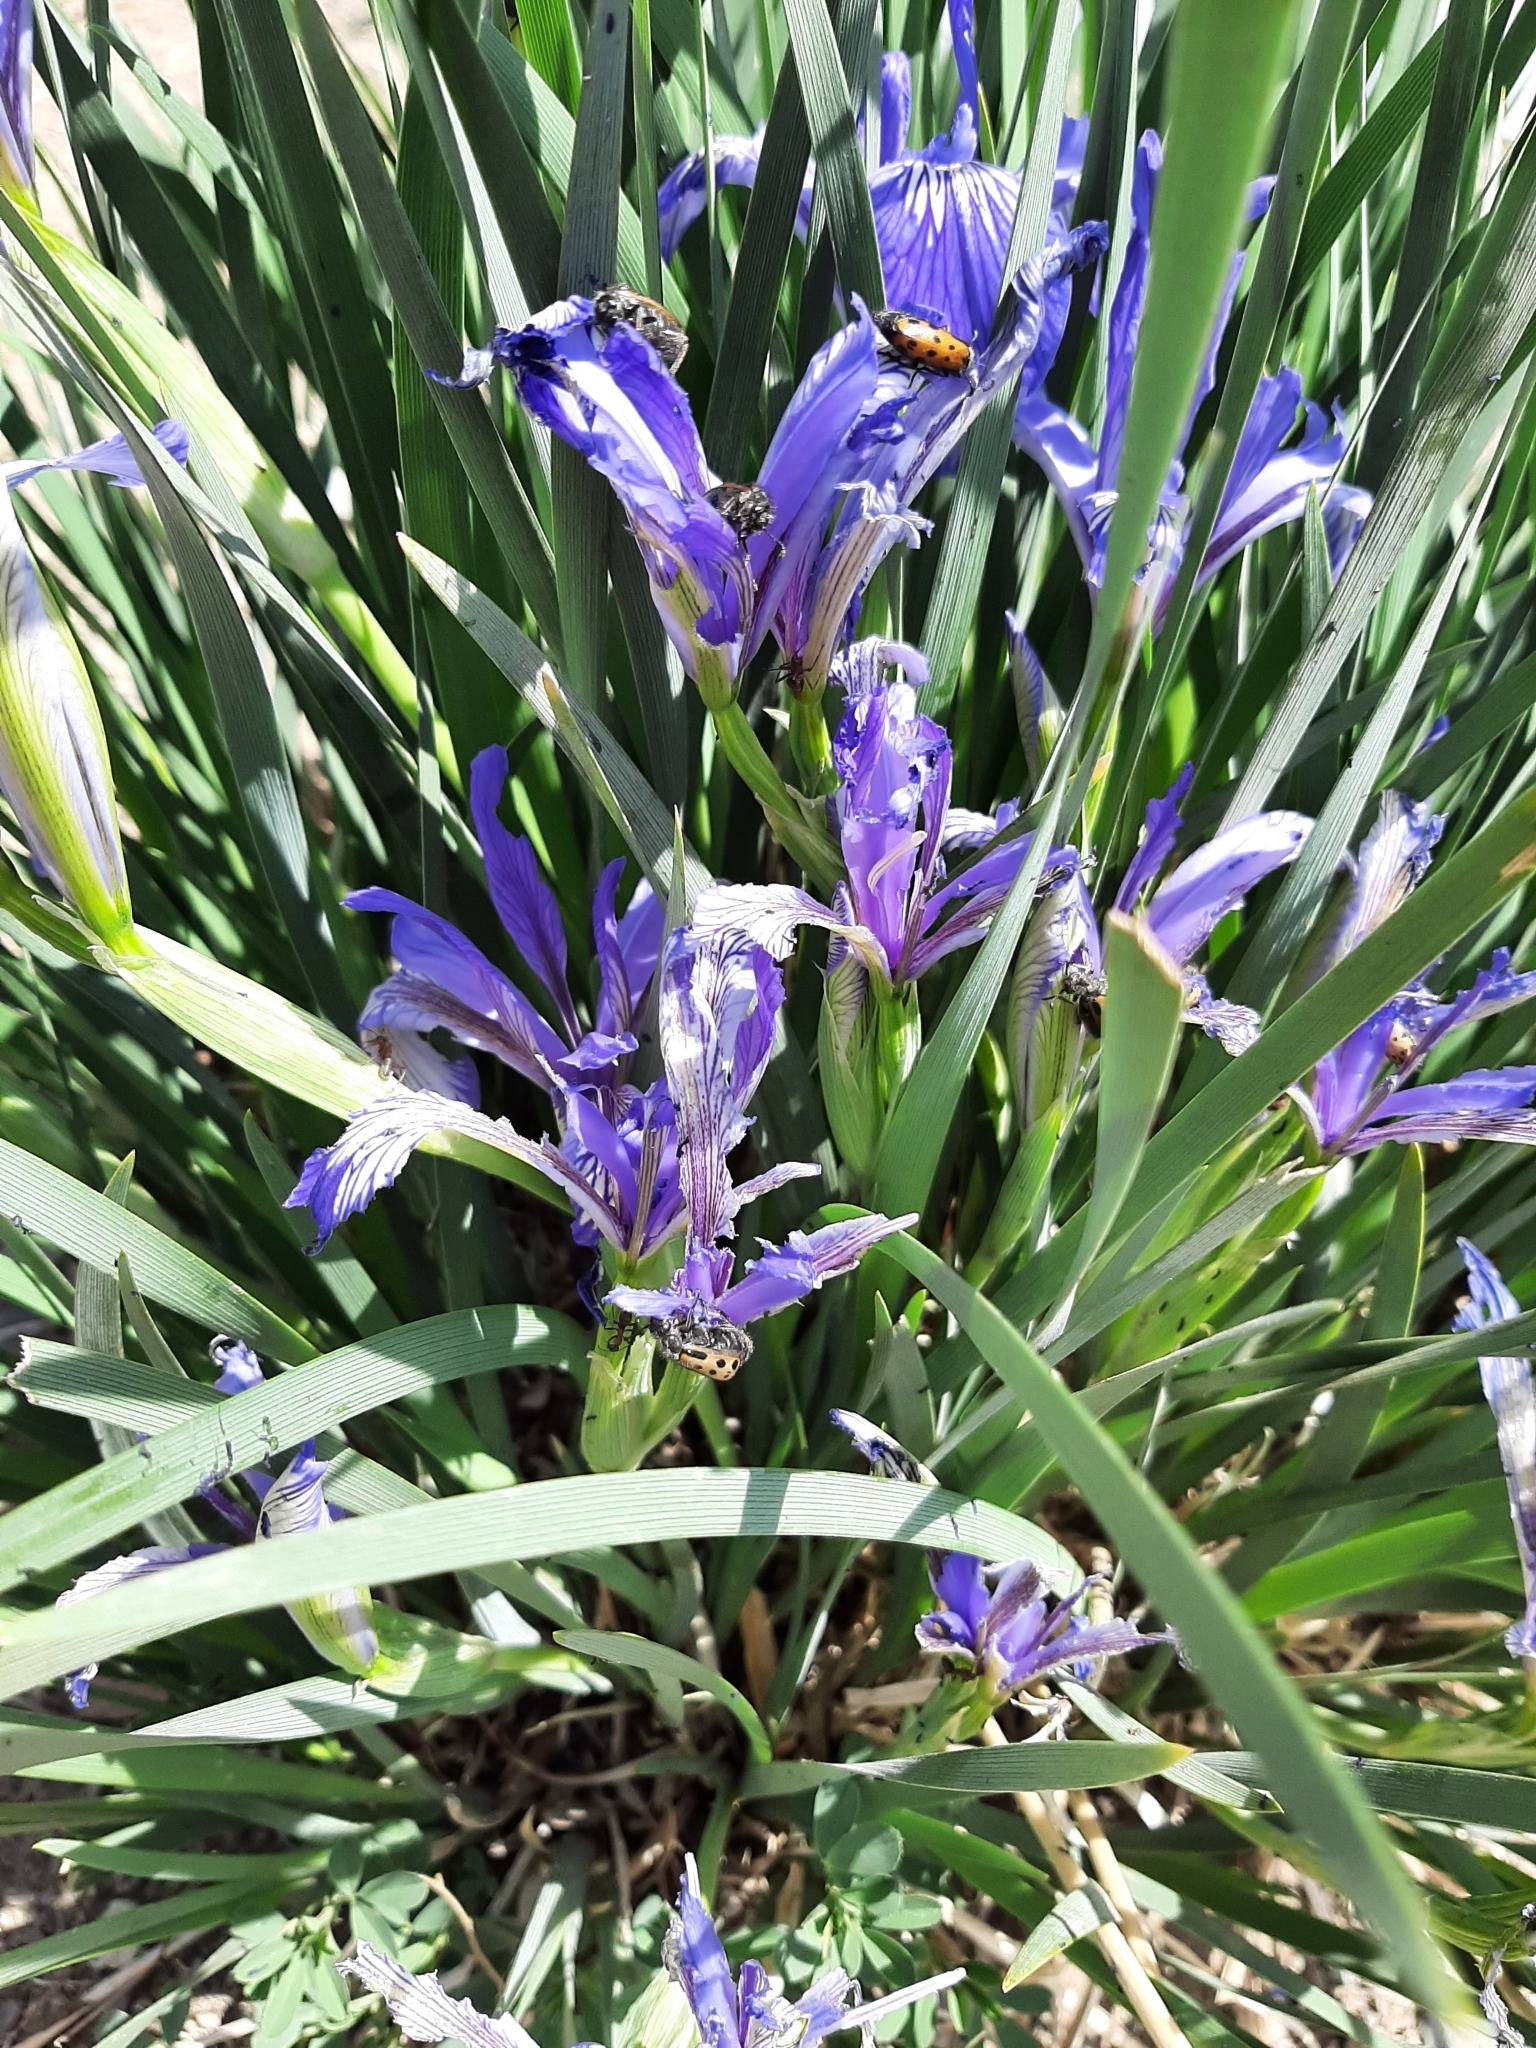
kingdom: Plantae
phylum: Tracheophyta
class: Liliopsida
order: Asparagales
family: Iridaceae
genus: Iris
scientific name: Iris lactea
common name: White-flower chinese iris
